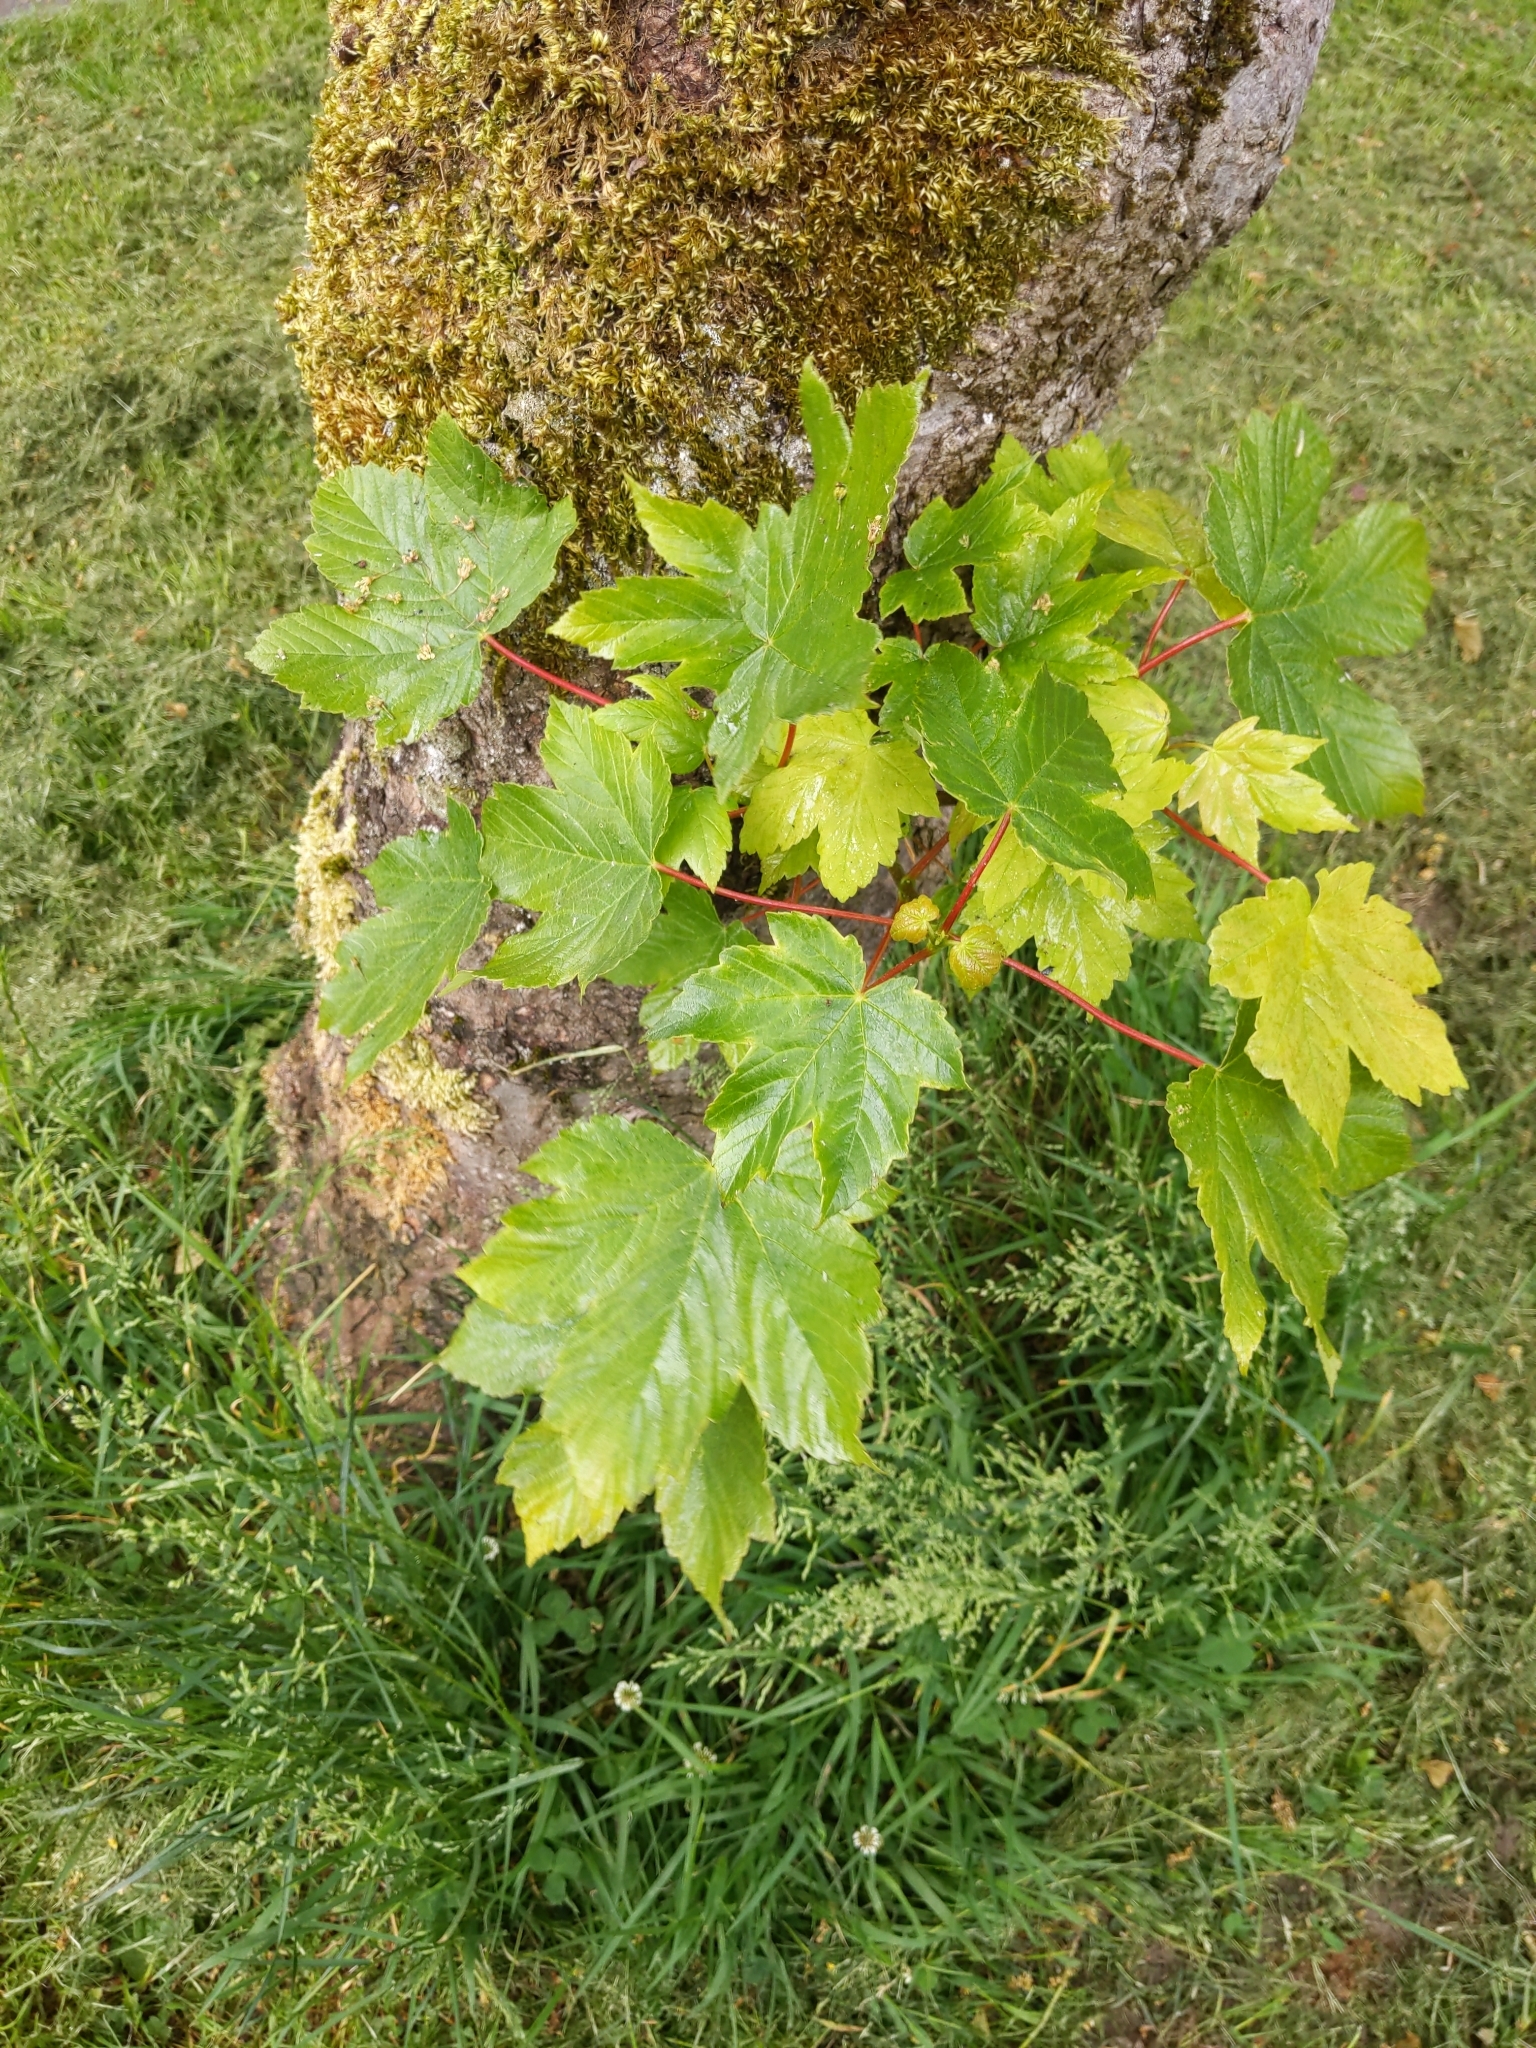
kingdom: Plantae
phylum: Tracheophyta
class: Magnoliopsida
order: Sapindales
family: Sapindaceae
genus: Acer
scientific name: Acer pseudoplatanus
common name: Sycamore
